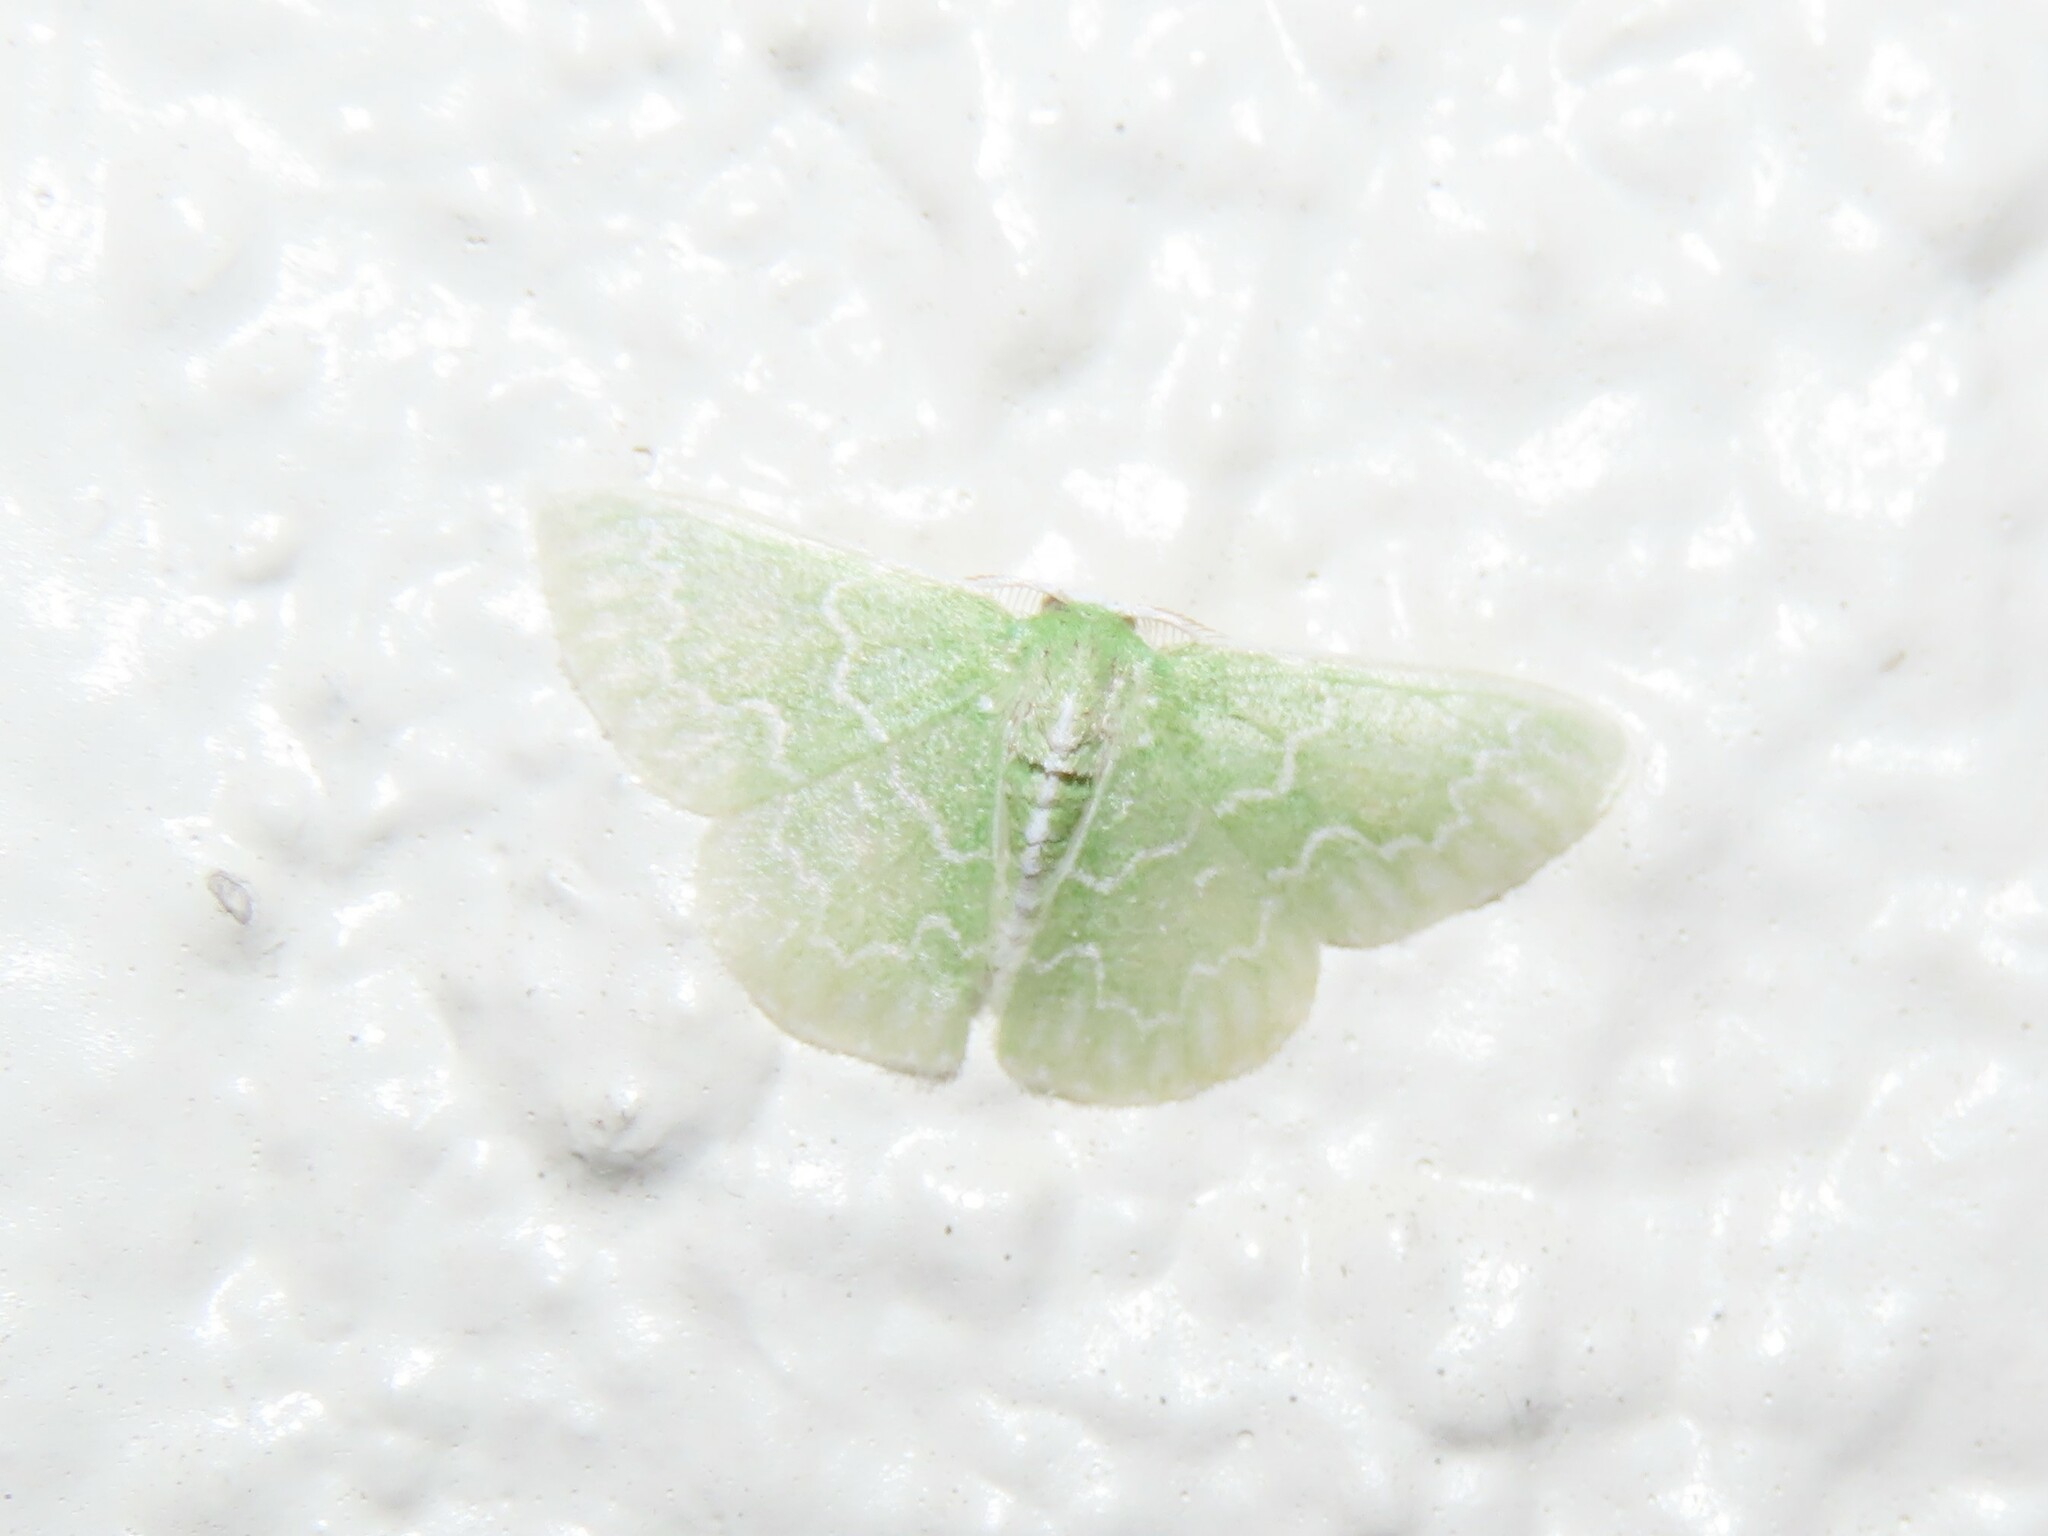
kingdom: Animalia
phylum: Arthropoda
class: Insecta
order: Lepidoptera
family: Geometridae
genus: Synchlora
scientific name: Synchlora frondaria
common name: Southern emerald
